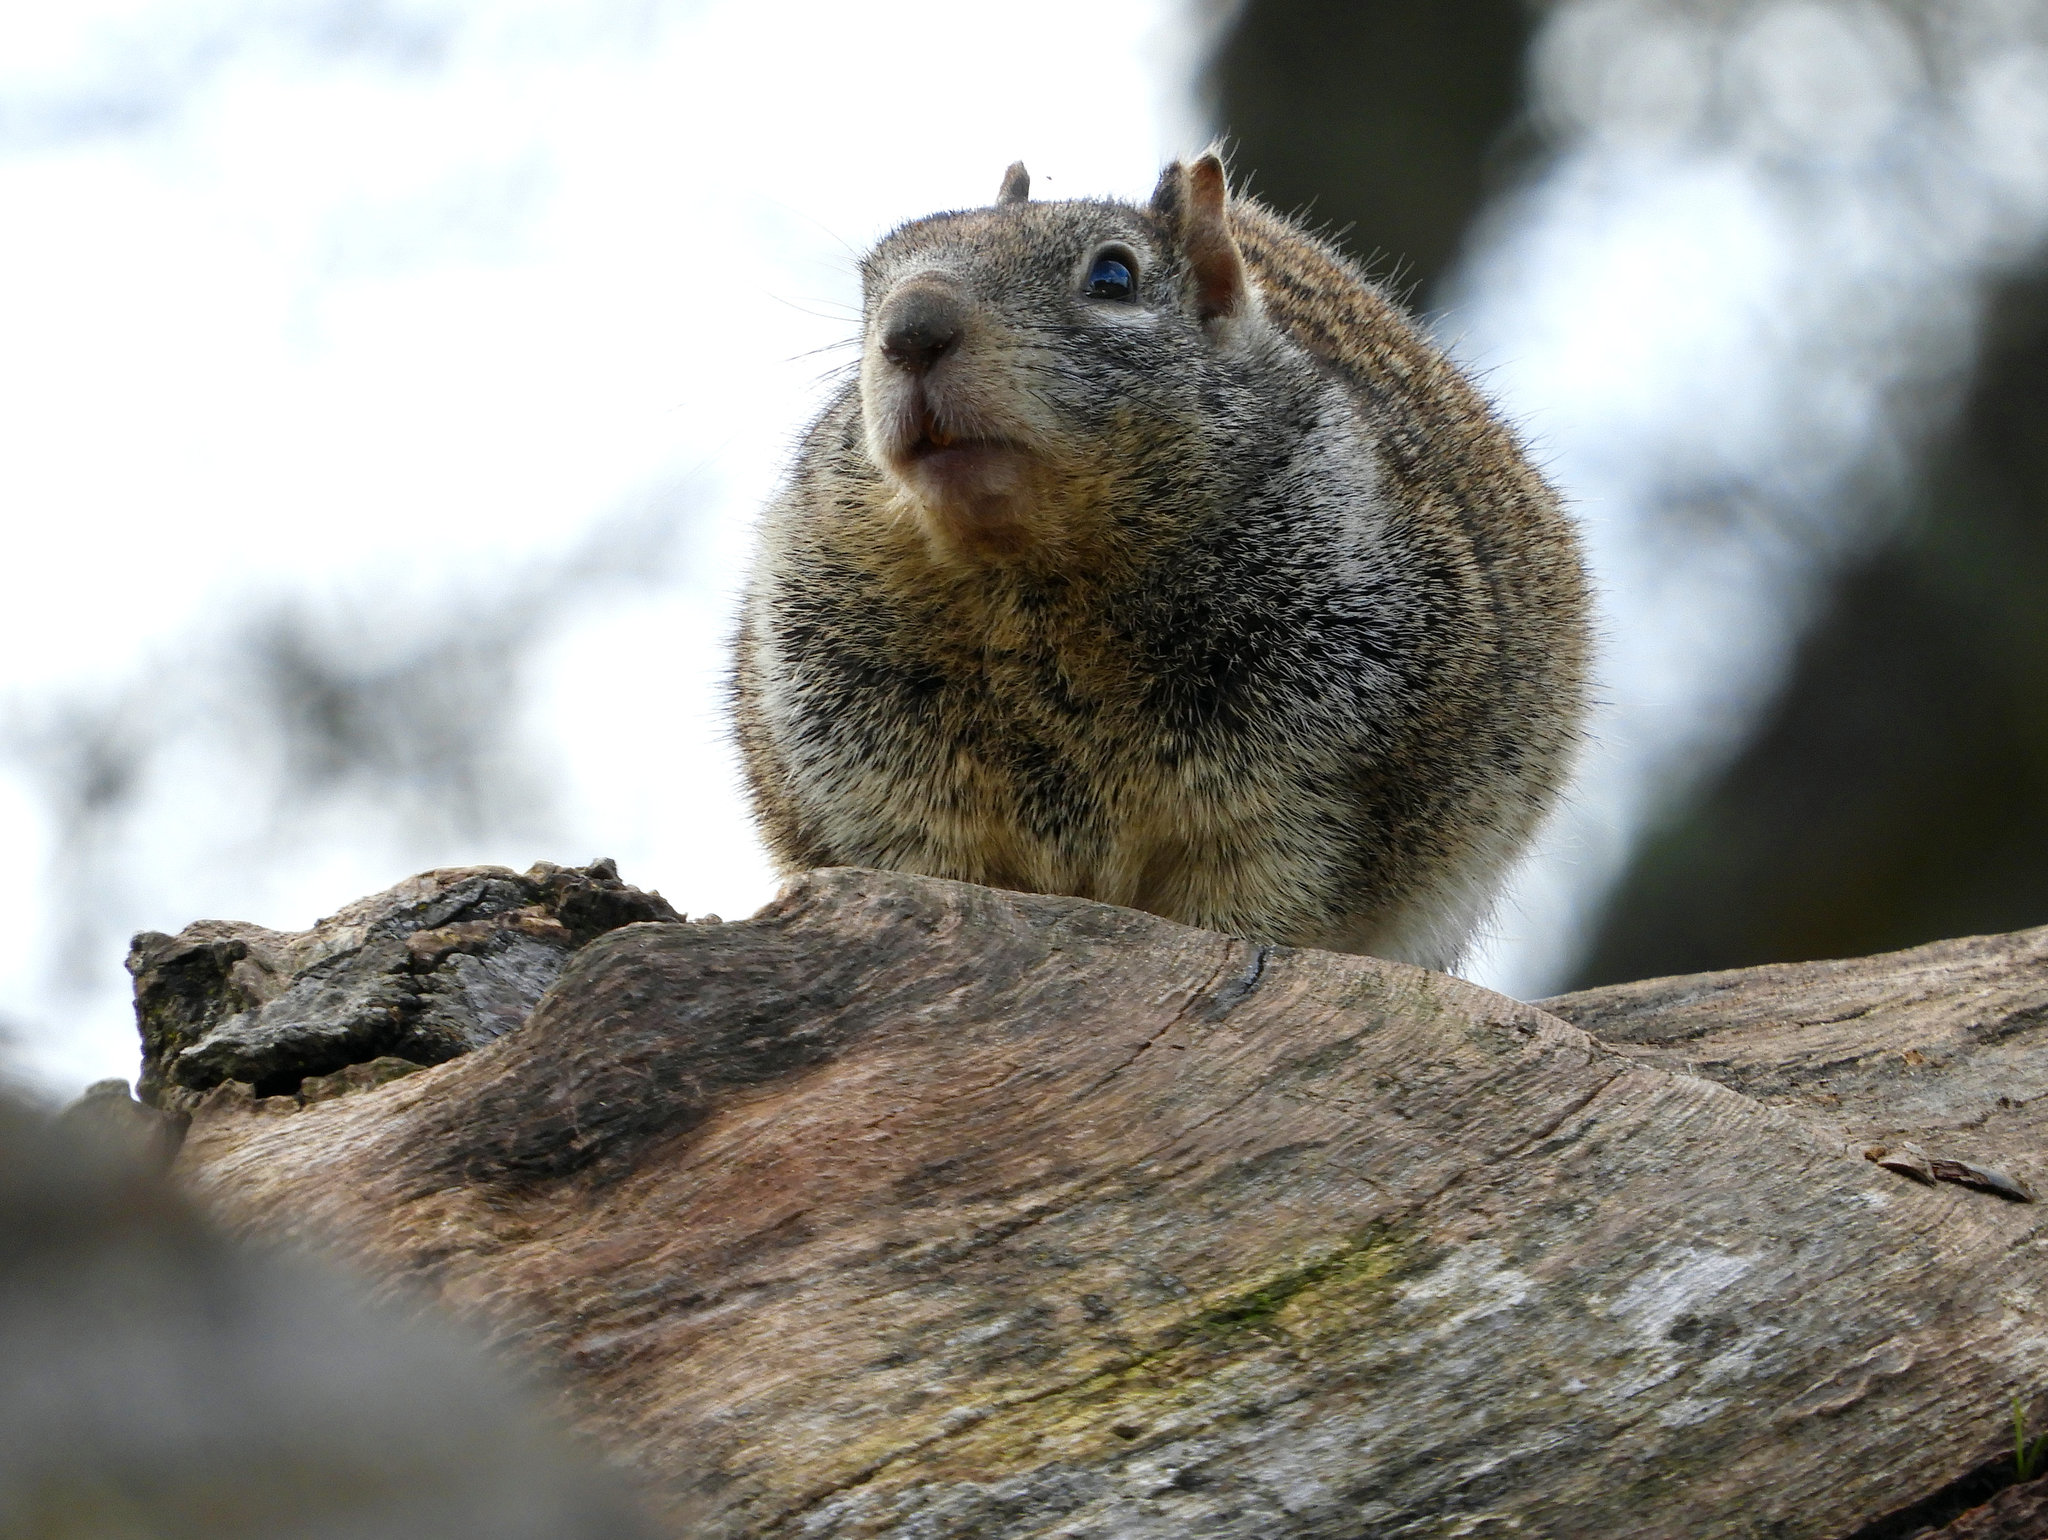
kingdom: Animalia
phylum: Chordata
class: Mammalia
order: Rodentia
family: Sciuridae
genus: Otospermophilus
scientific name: Otospermophilus beecheyi
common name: California ground squirrel
